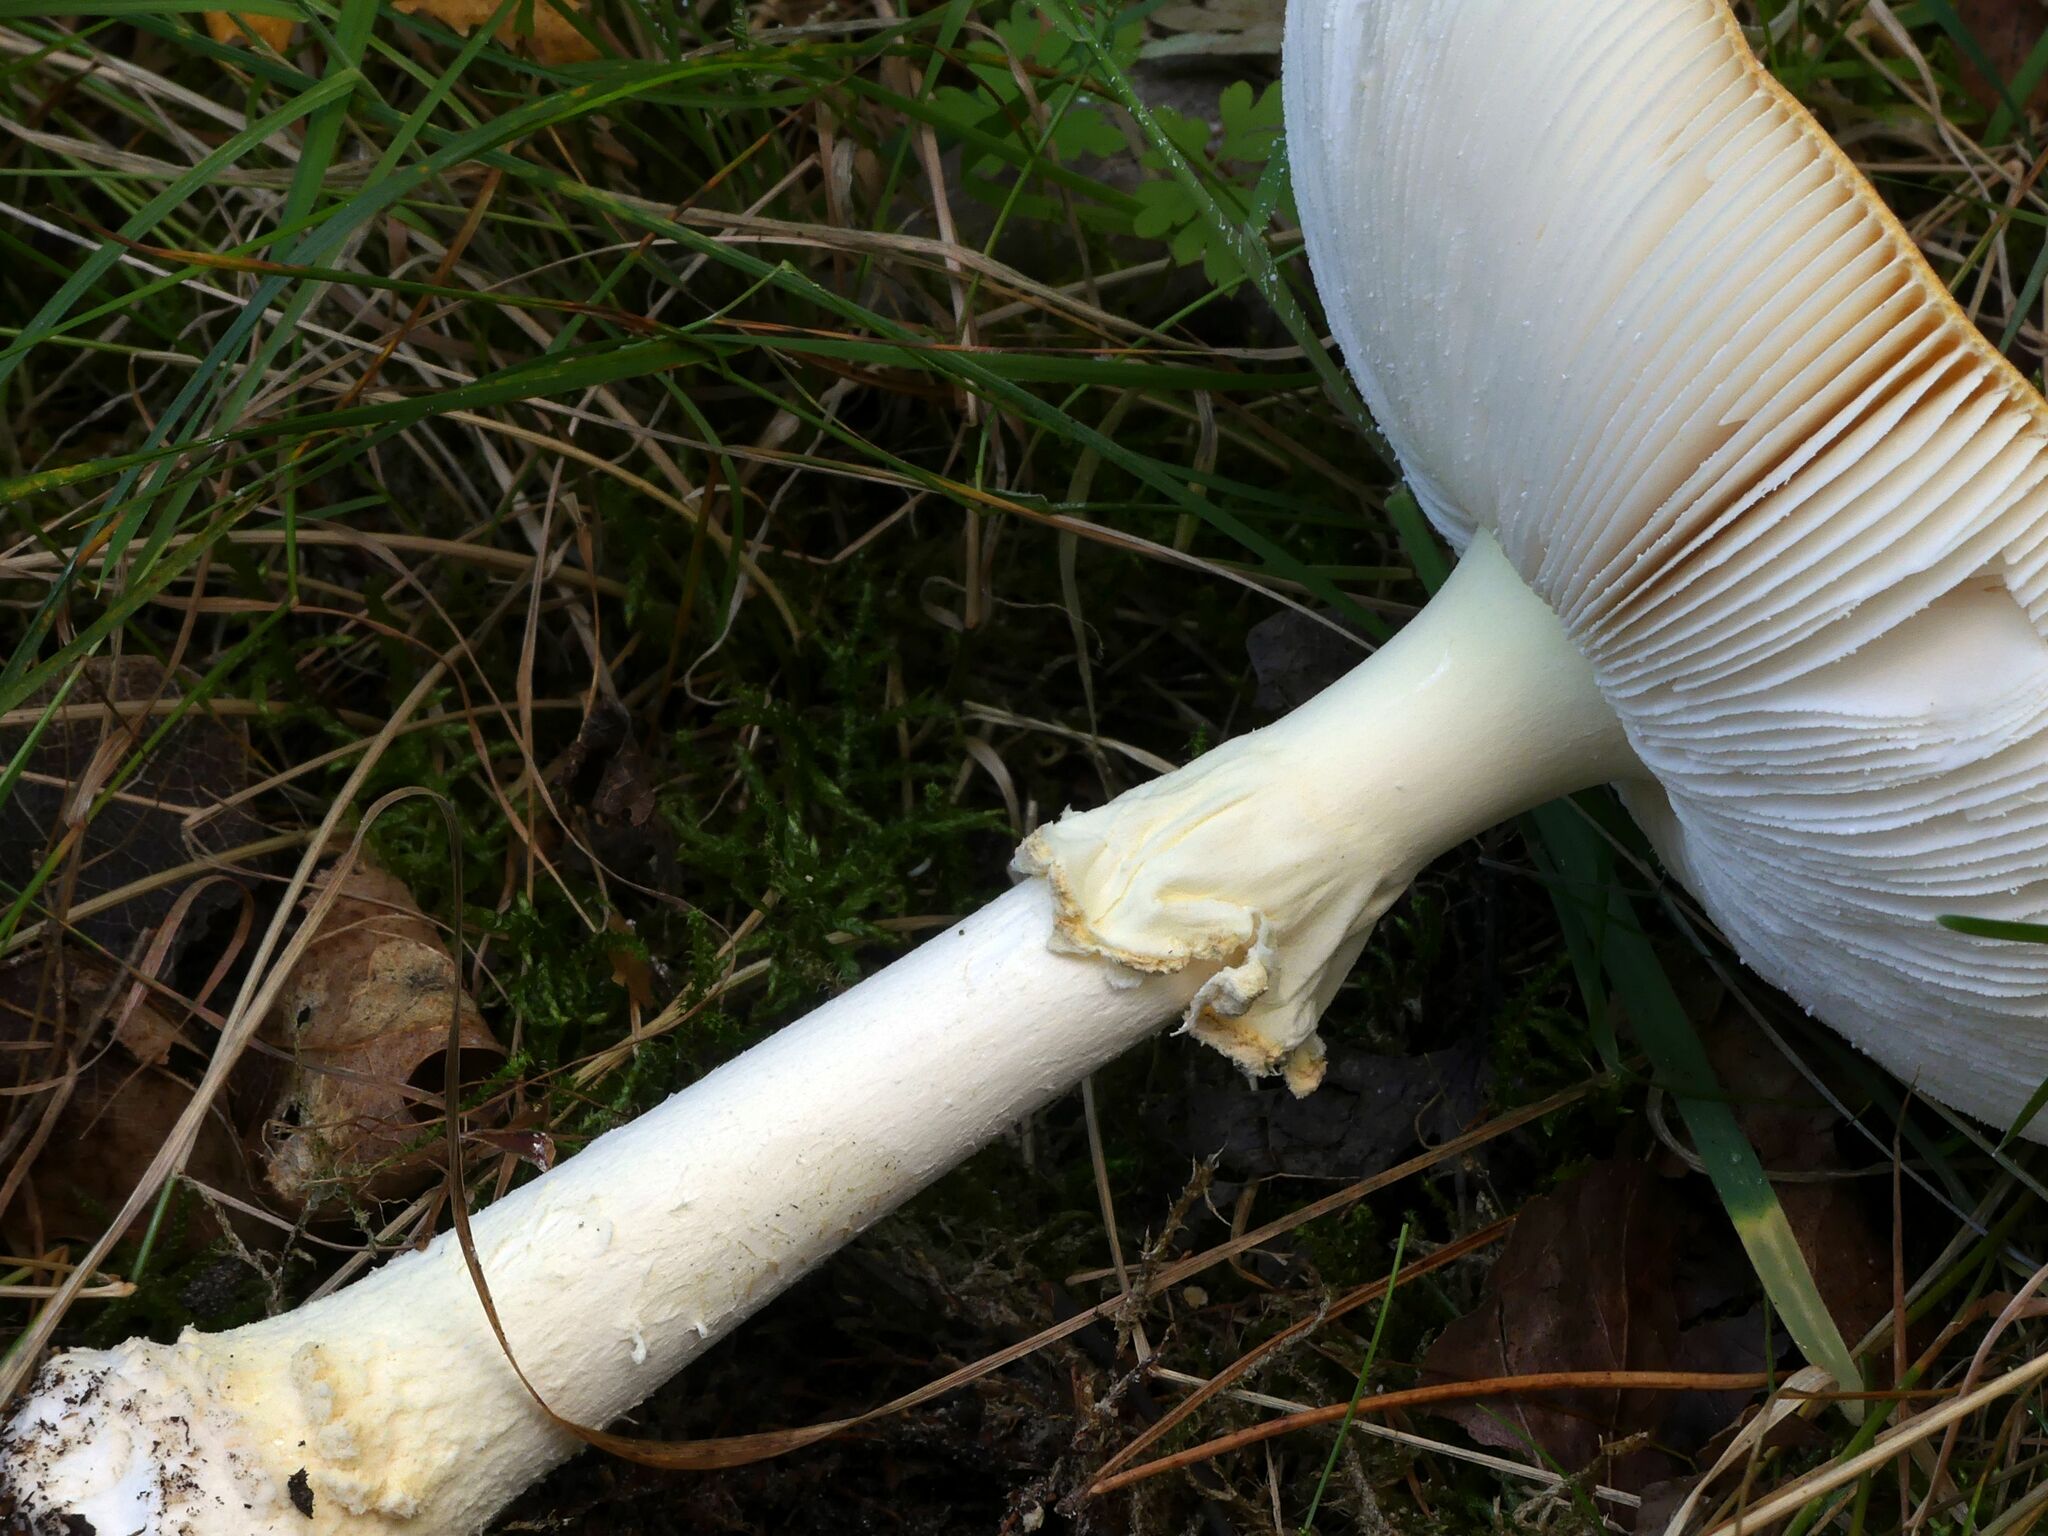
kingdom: Fungi
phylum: Basidiomycota
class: Agaricomycetes
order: Agaricales
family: Amanitaceae
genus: Amanita
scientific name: Amanita muscaria
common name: Fly agaric
